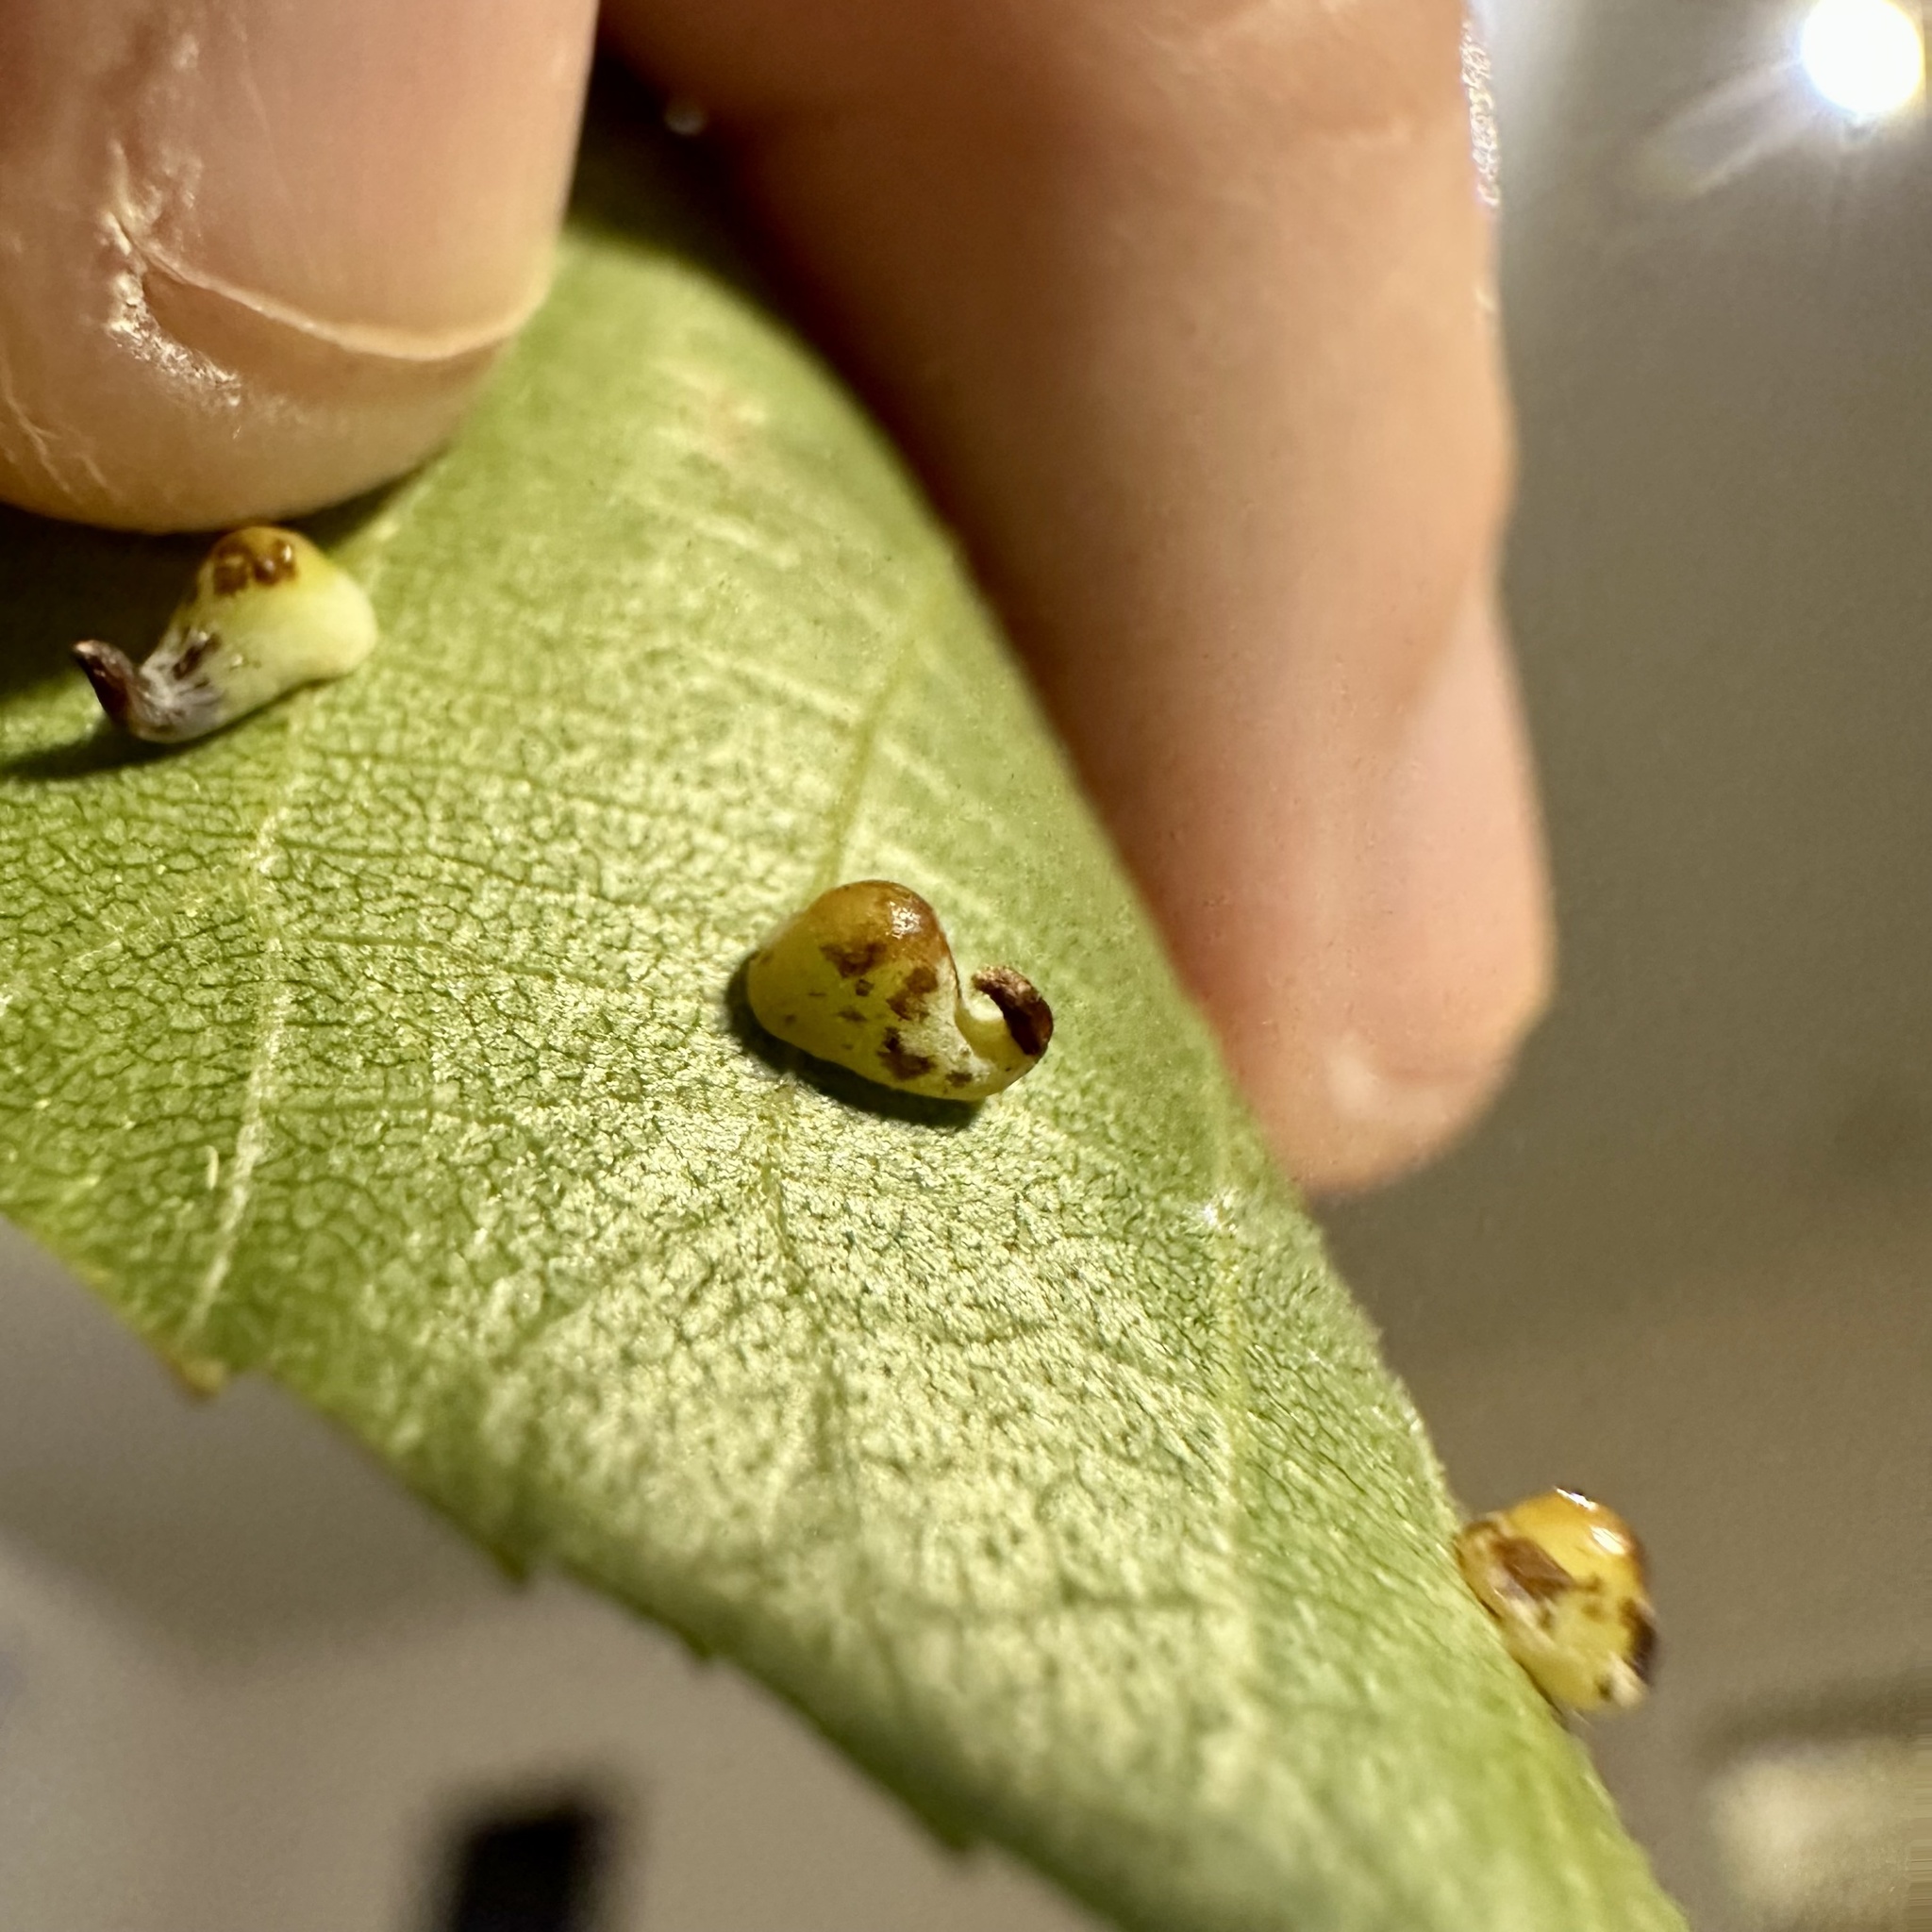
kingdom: Animalia
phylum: Arthropoda
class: Insecta
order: Diptera
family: Cecidomyiidae
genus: Caryomyia
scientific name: Caryomyia recurvata
